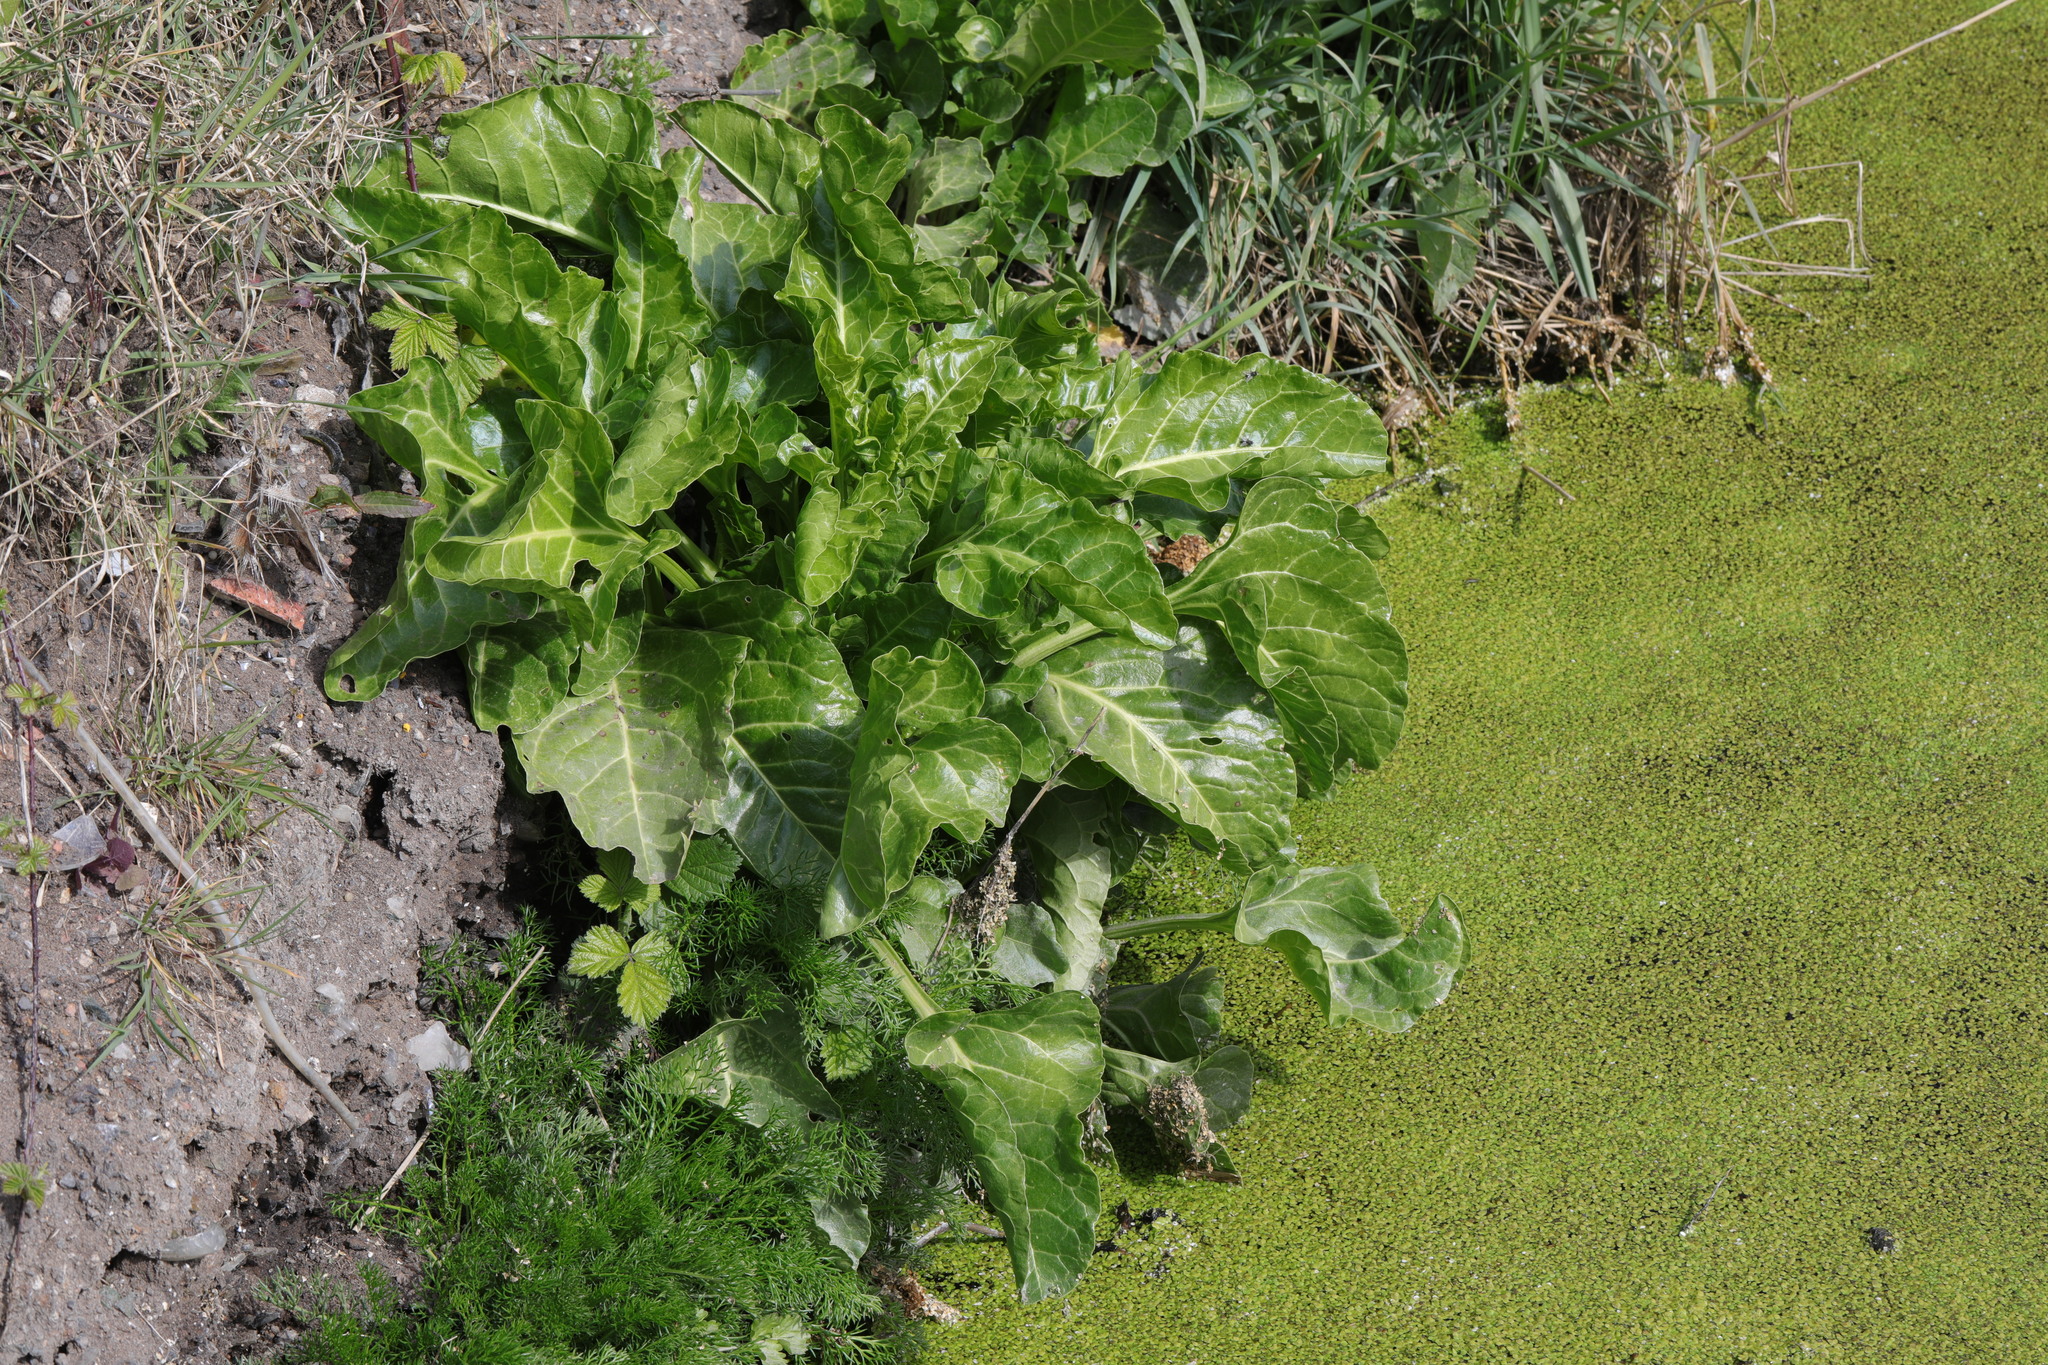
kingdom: Plantae
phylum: Tracheophyta
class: Magnoliopsida
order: Caryophyllales
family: Amaranthaceae
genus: Beta
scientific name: Beta vulgaris
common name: Beet
